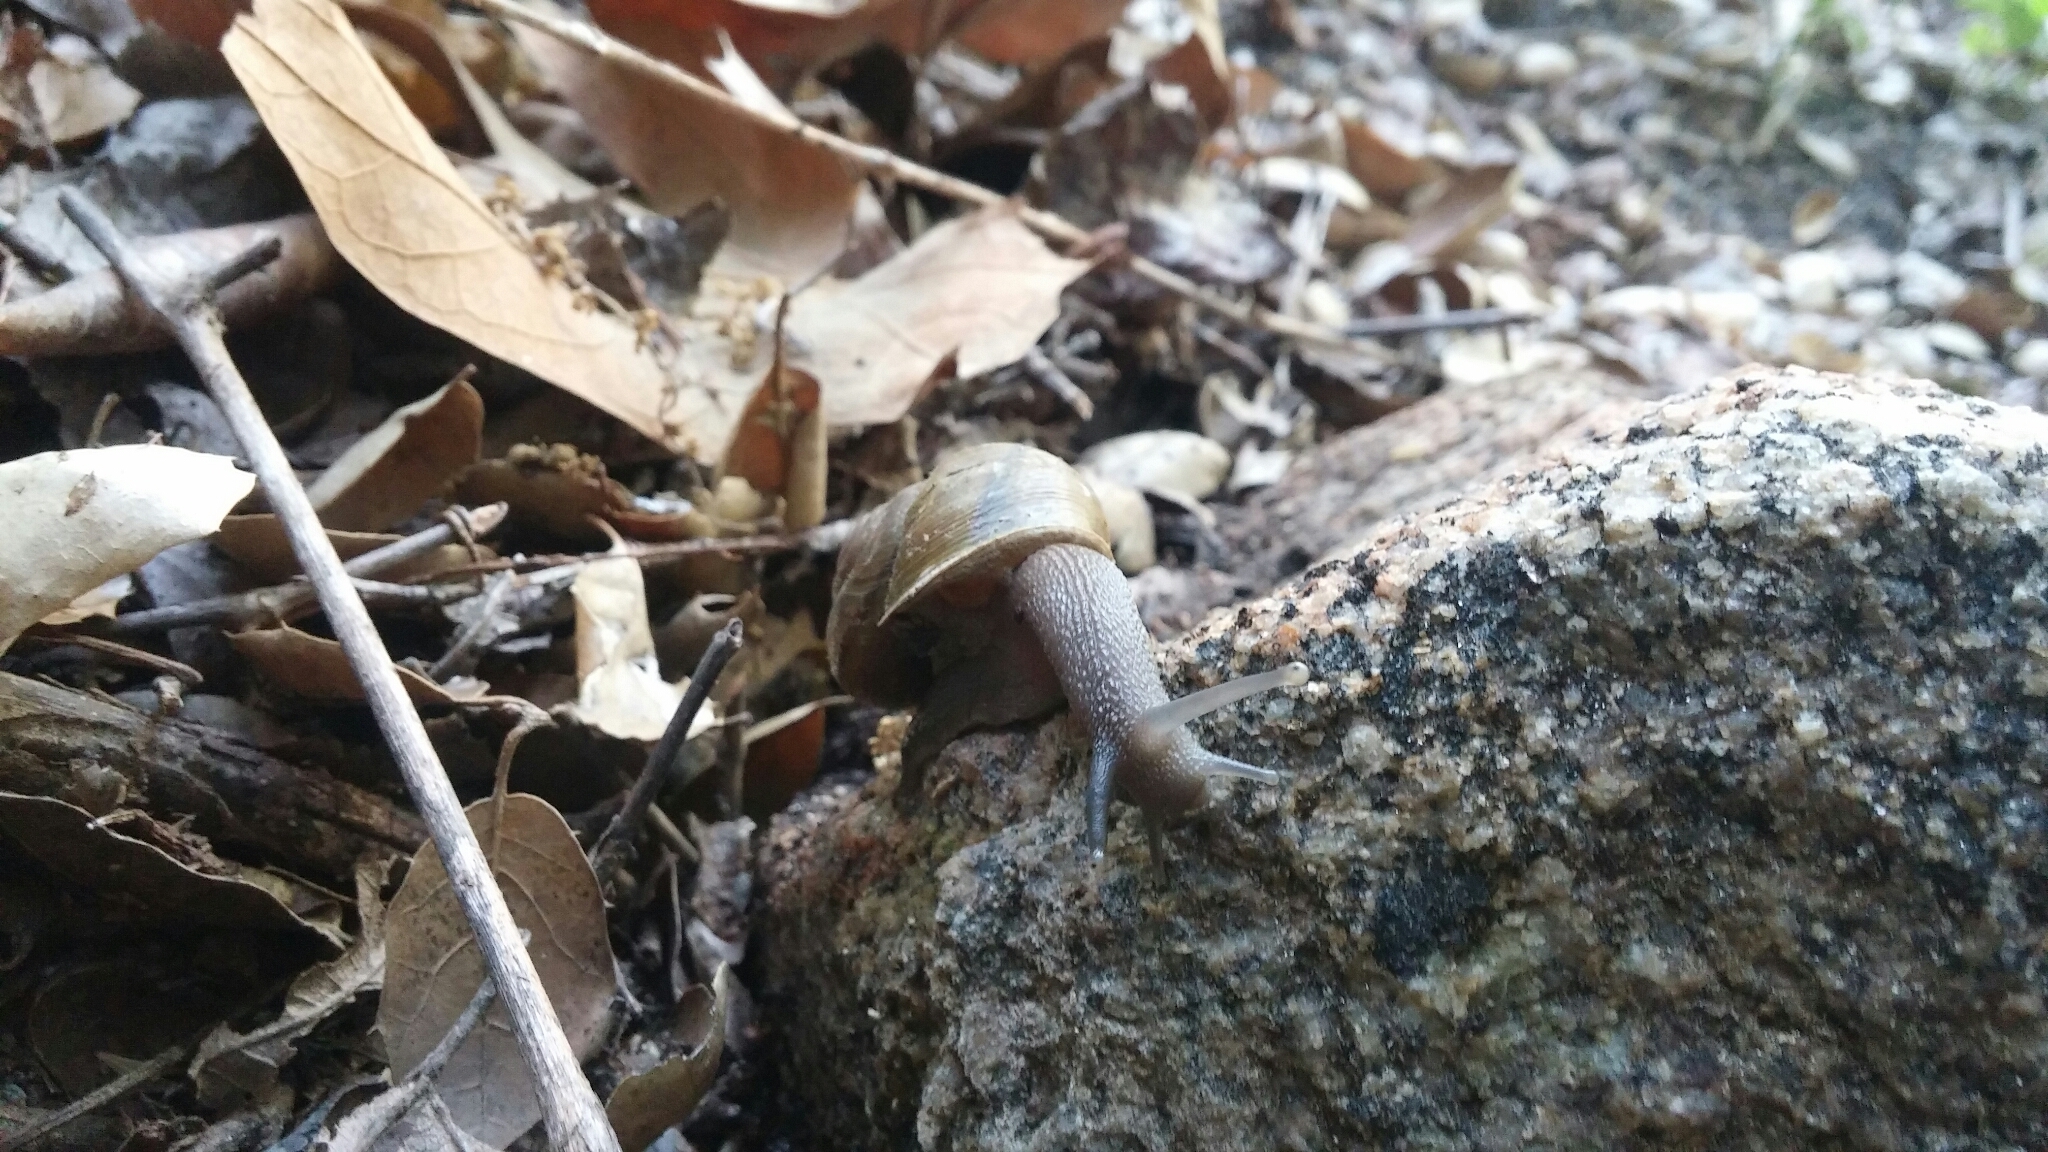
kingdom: Animalia
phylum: Mollusca
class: Gastropoda
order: Stylommatophora
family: Xanthonychidae
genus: Helminthoglypta
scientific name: Helminthoglypta tudiculata
